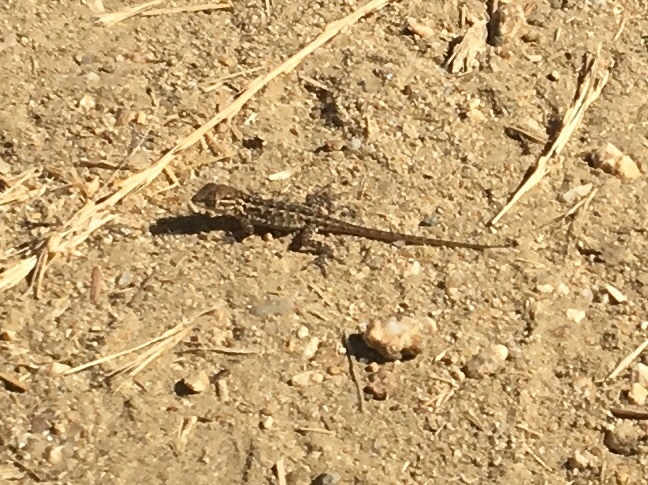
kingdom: Animalia
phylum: Chordata
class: Squamata
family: Phrynosomatidae
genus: Uta
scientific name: Uta stansburiana
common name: Side-blotched lizard
